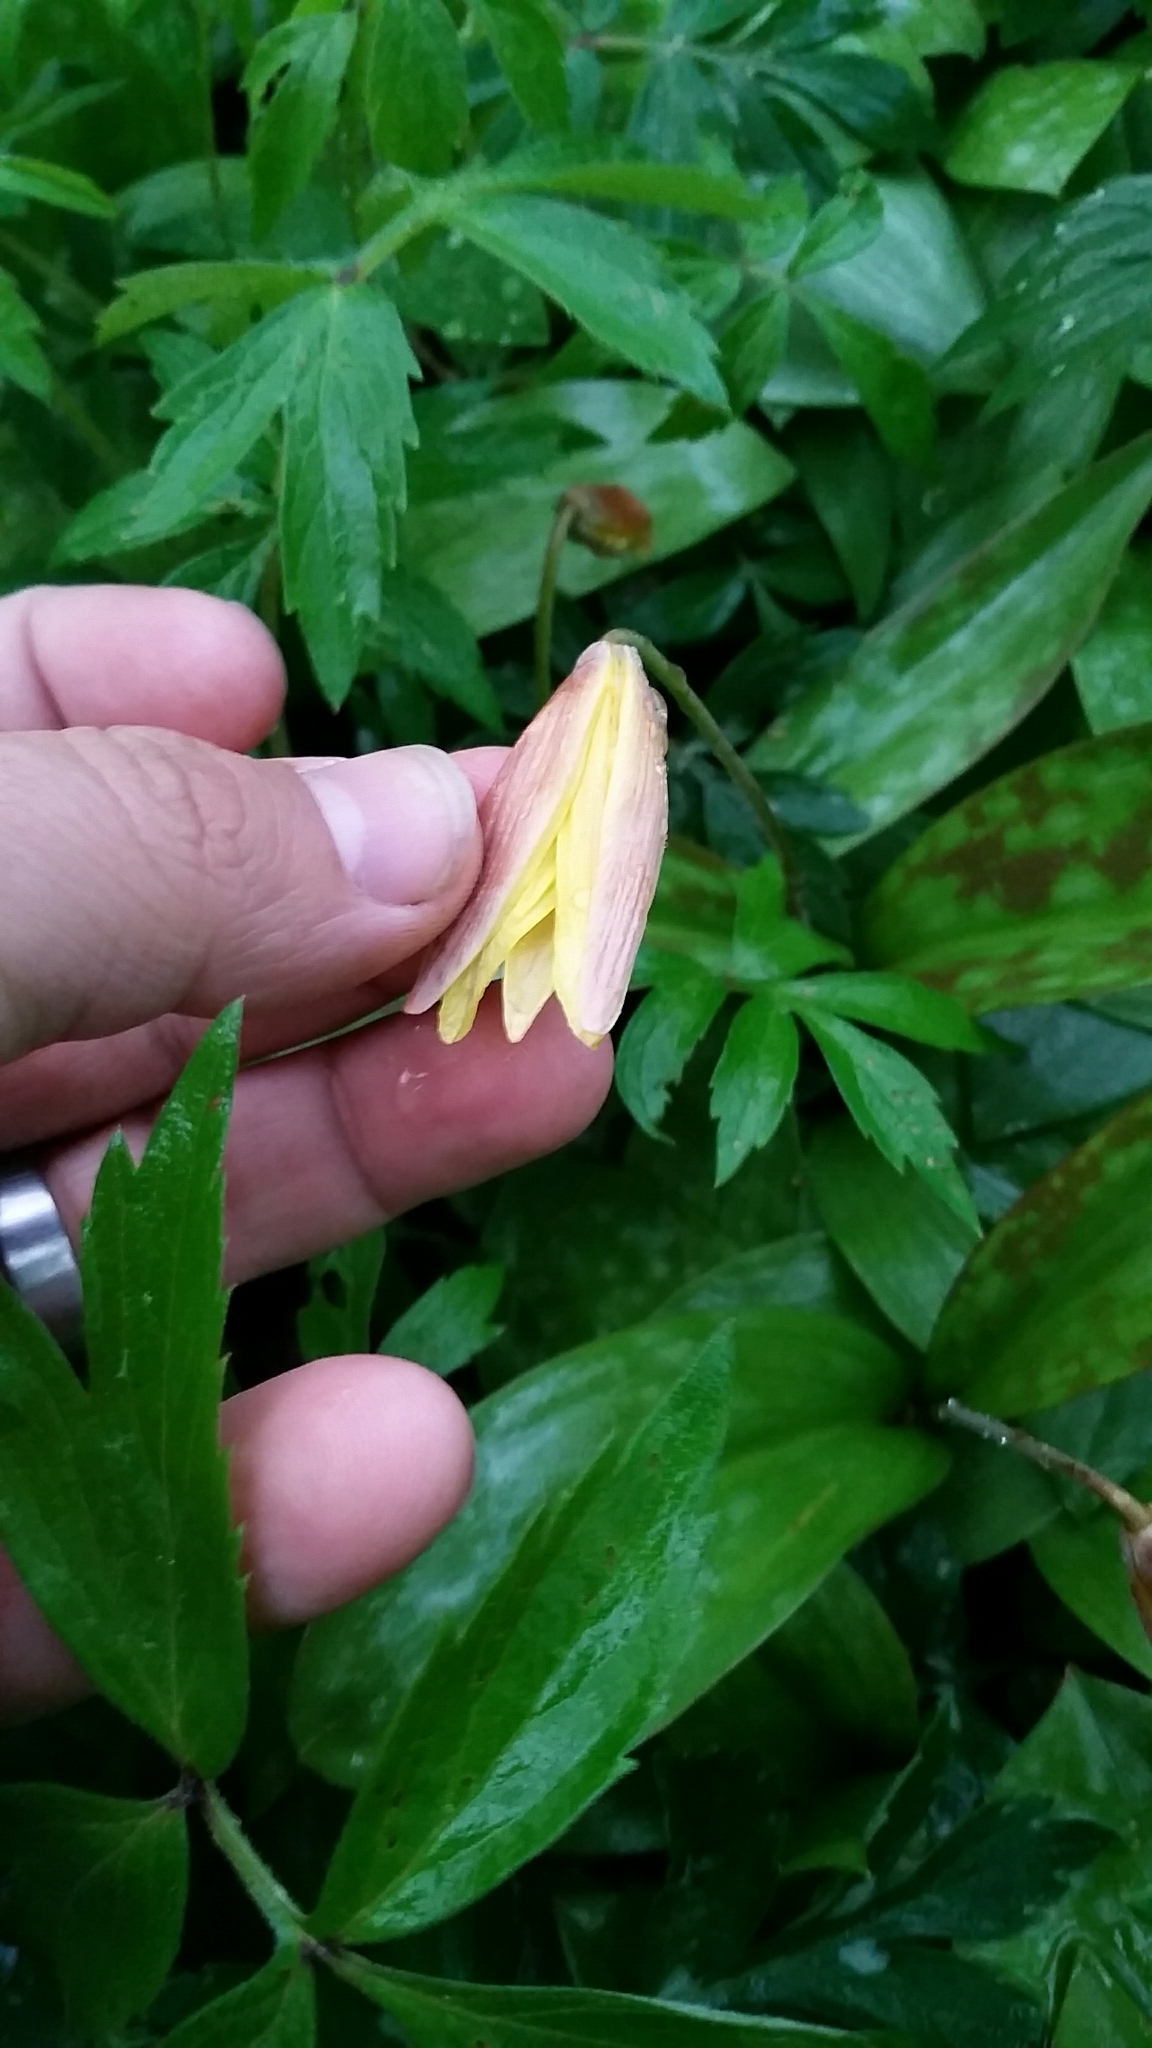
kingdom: Plantae
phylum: Tracheophyta
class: Liliopsida
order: Liliales
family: Liliaceae
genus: Erythronium
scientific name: Erythronium americanum
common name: Yellow adder's-tongue
